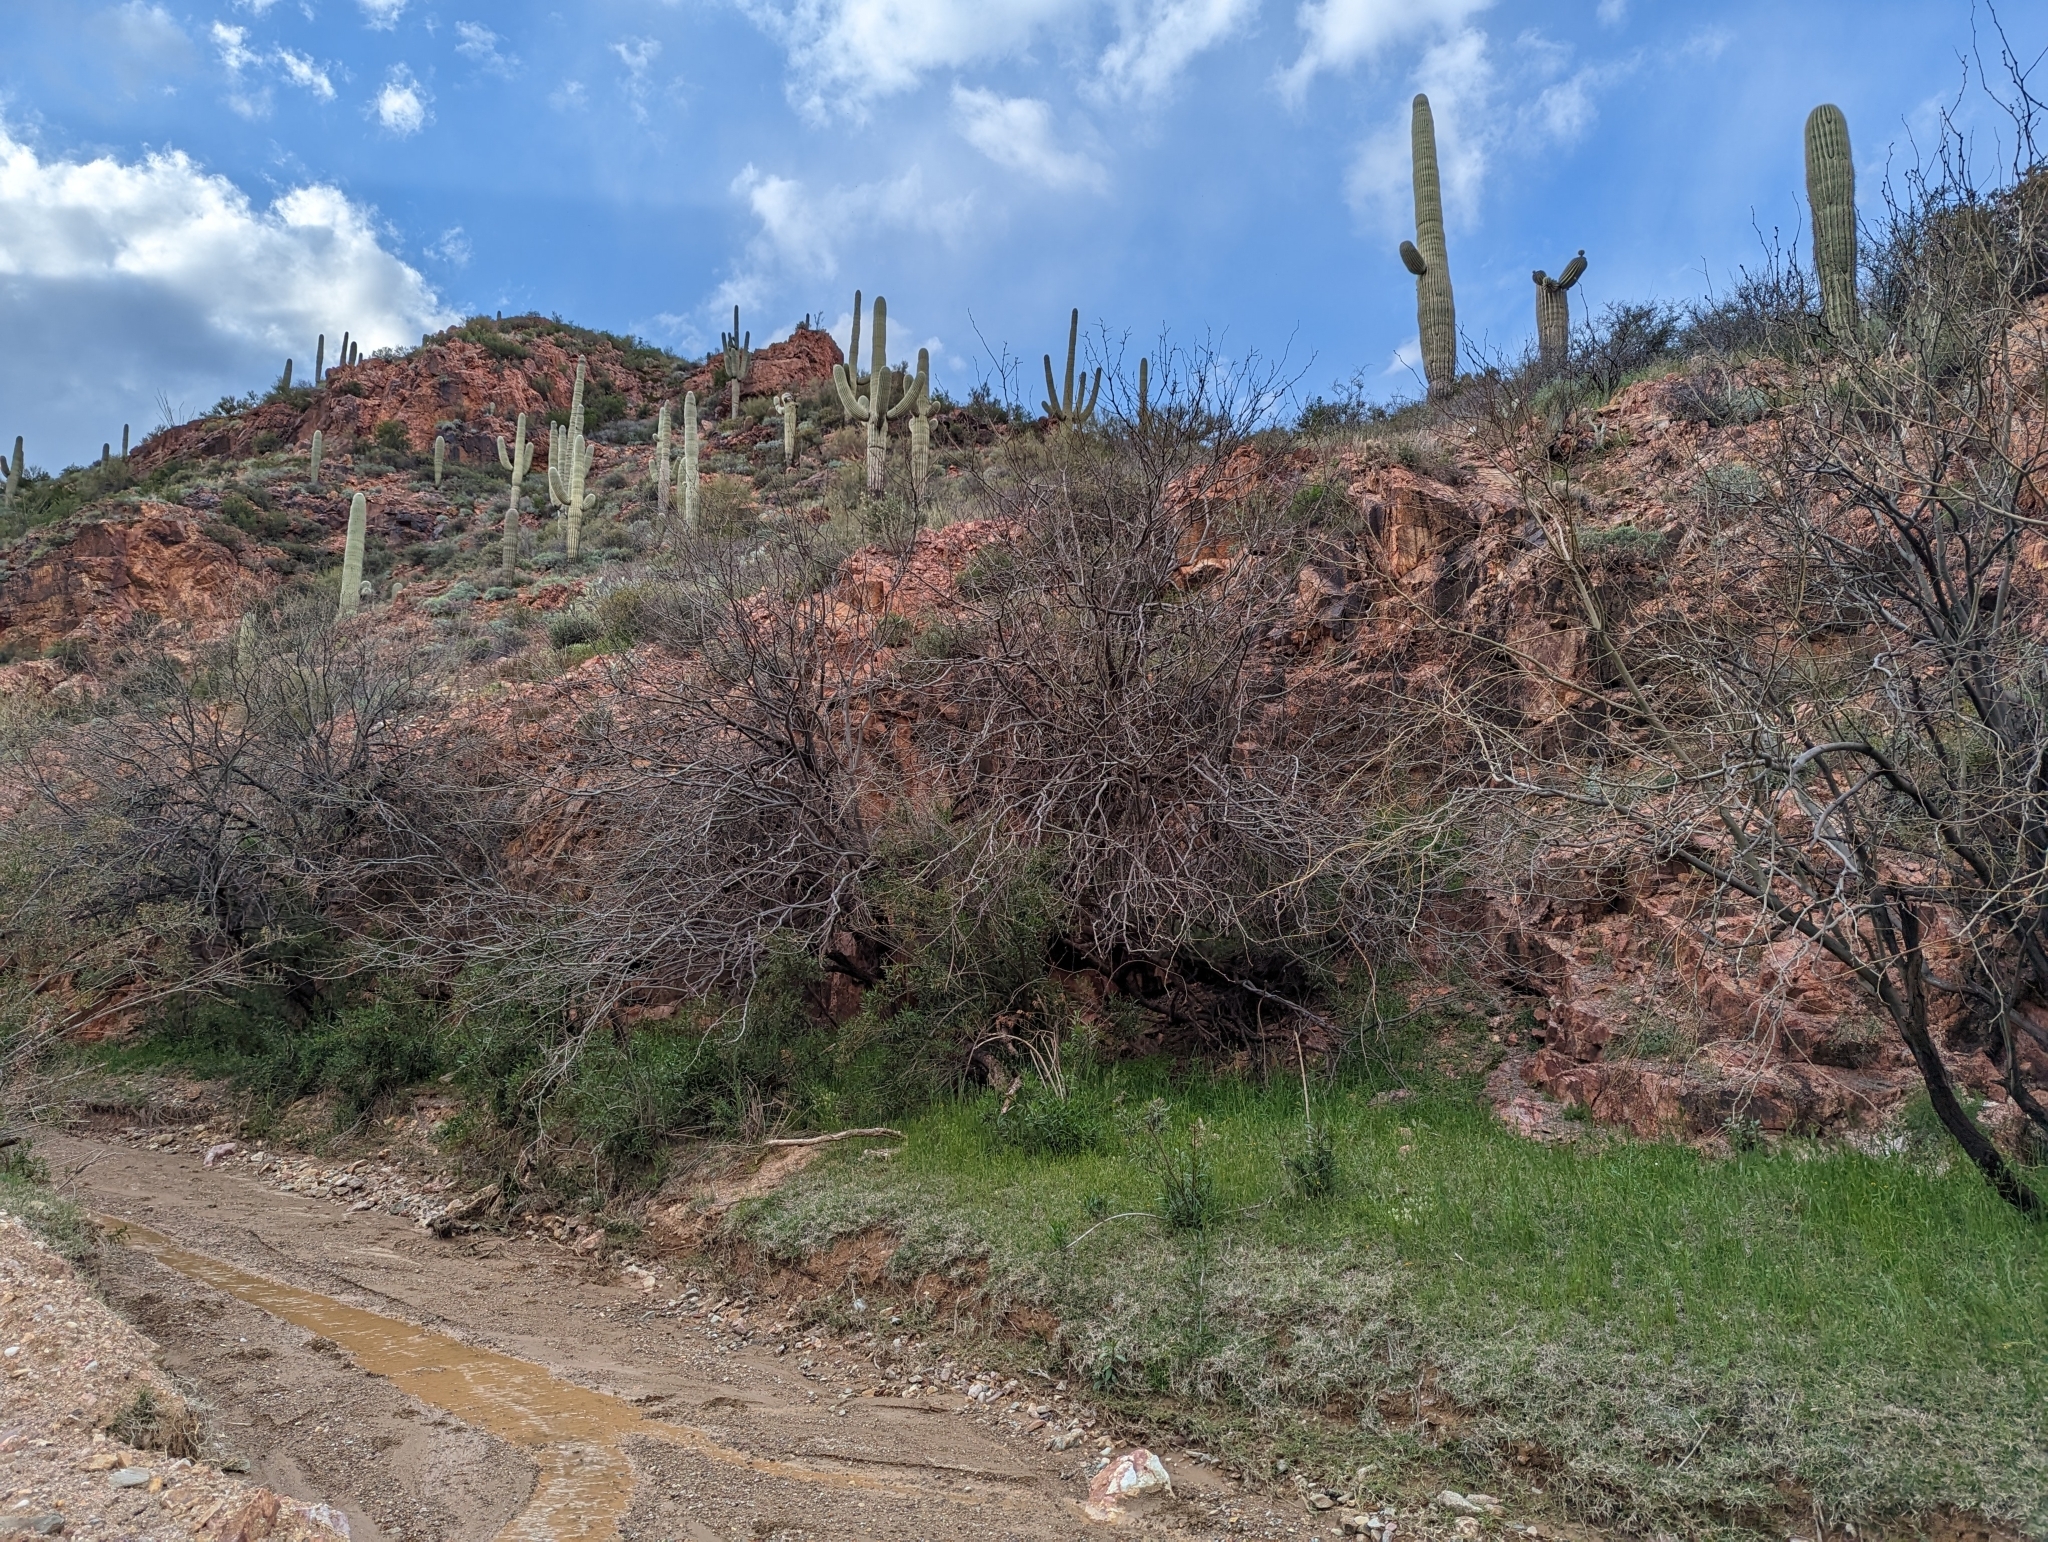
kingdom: Plantae
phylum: Tracheophyta
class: Magnoliopsida
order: Caryophyllales
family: Cactaceae
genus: Carnegiea
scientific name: Carnegiea gigantea
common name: Saguaro
